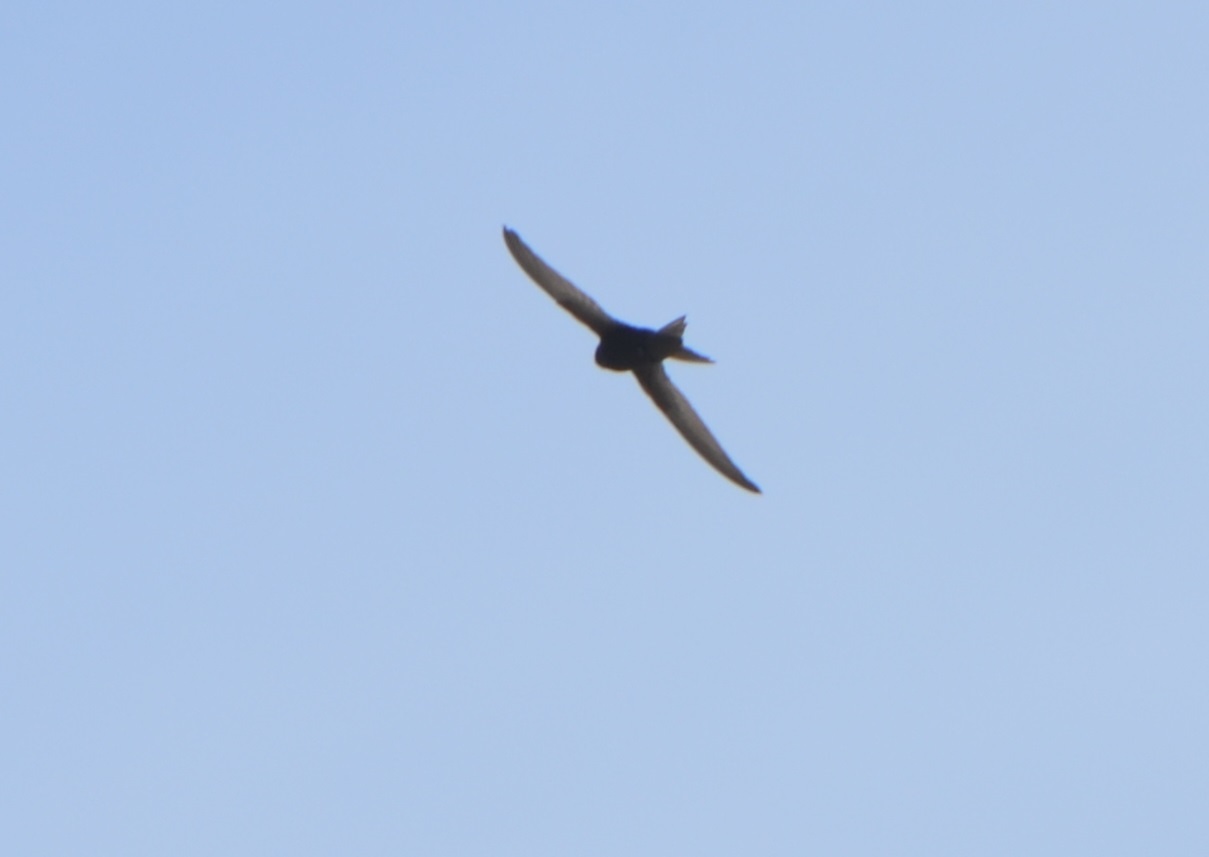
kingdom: Animalia
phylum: Chordata
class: Aves
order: Apodiformes
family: Apodidae
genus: Apus
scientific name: Apus apus
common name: Common swift
